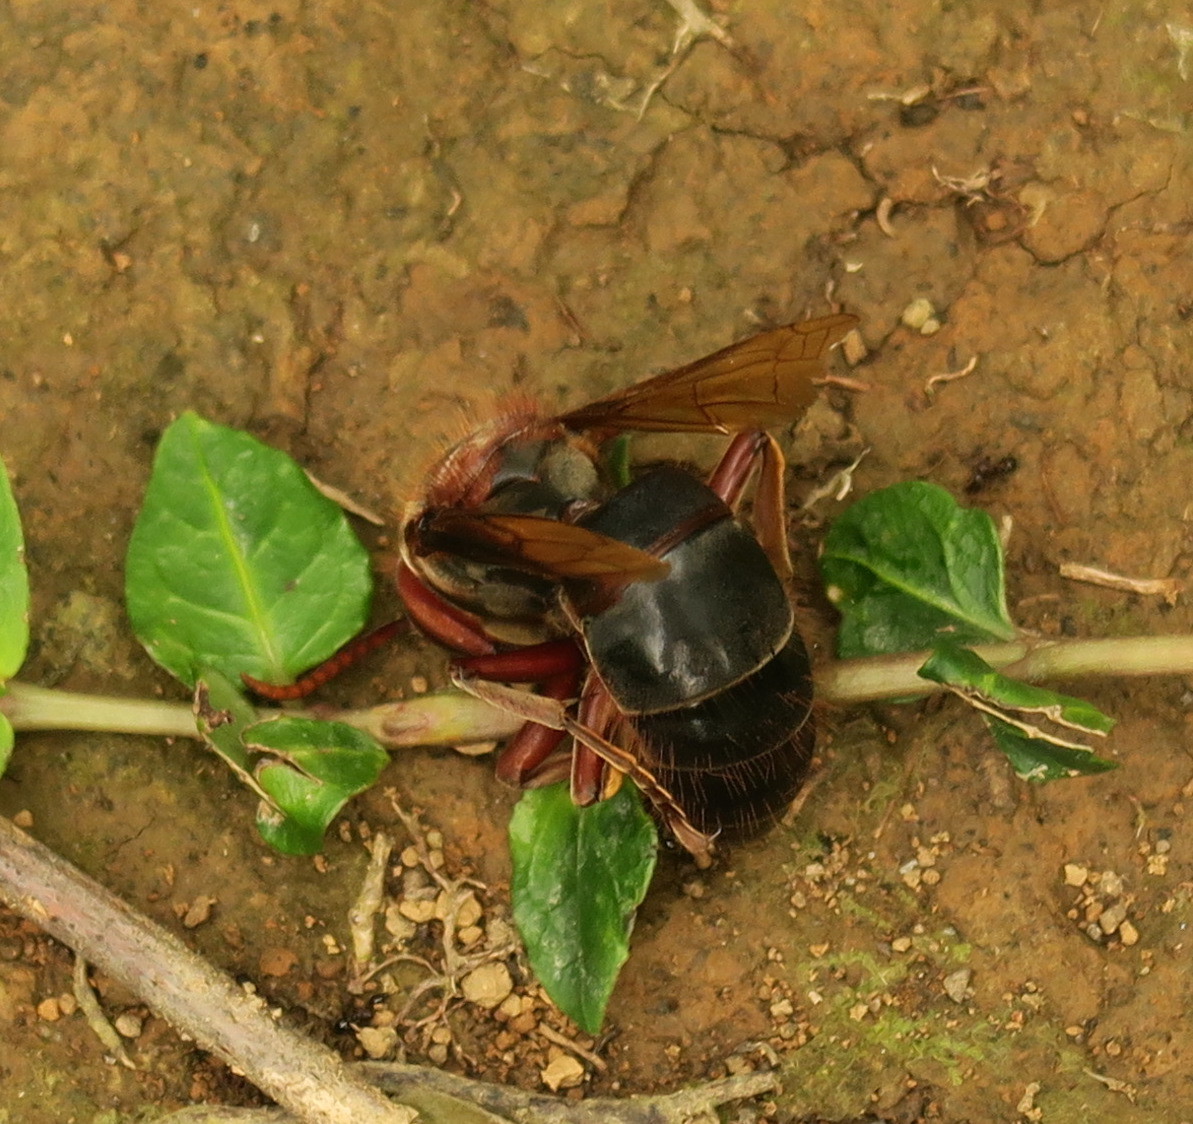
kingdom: Animalia
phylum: Arthropoda
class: Insecta
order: Hymenoptera
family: Vespidae
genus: Vespa
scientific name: Vespa dybowskii
